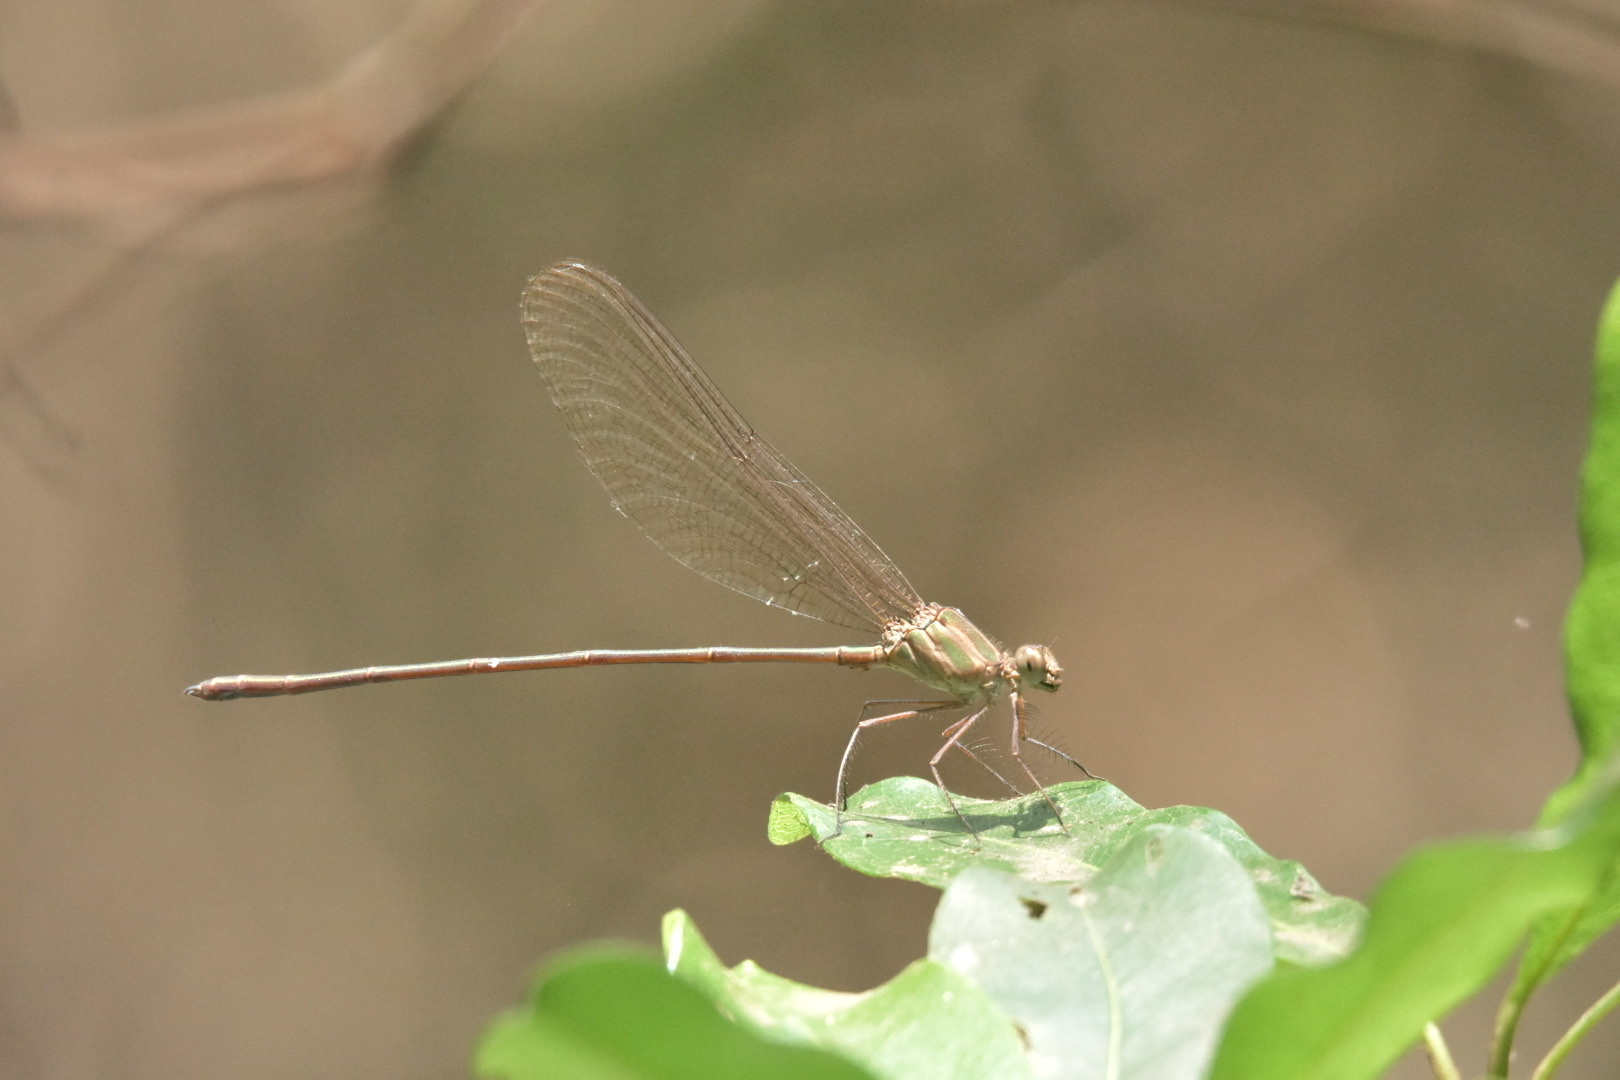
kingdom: Animalia
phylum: Arthropoda
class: Insecta
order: Odonata
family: Calopterygidae
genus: Phaon
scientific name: Phaon iridipennis
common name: Glistening demoiselle
